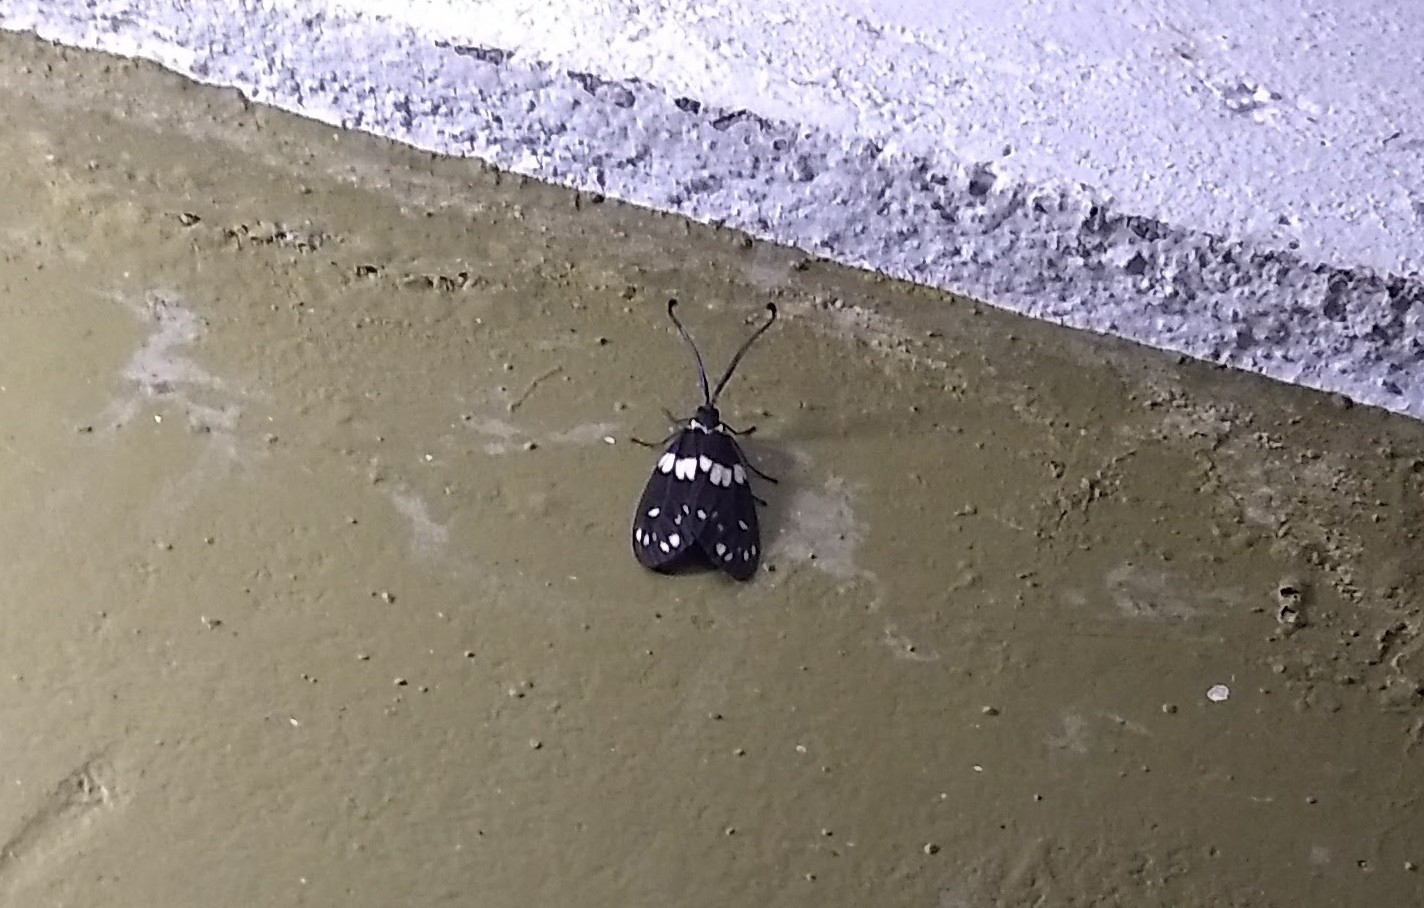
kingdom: Animalia
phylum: Arthropoda
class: Insecta
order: Lepidoptera
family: Zygaenidae
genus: Eterusia
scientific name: Eterusia aedea
